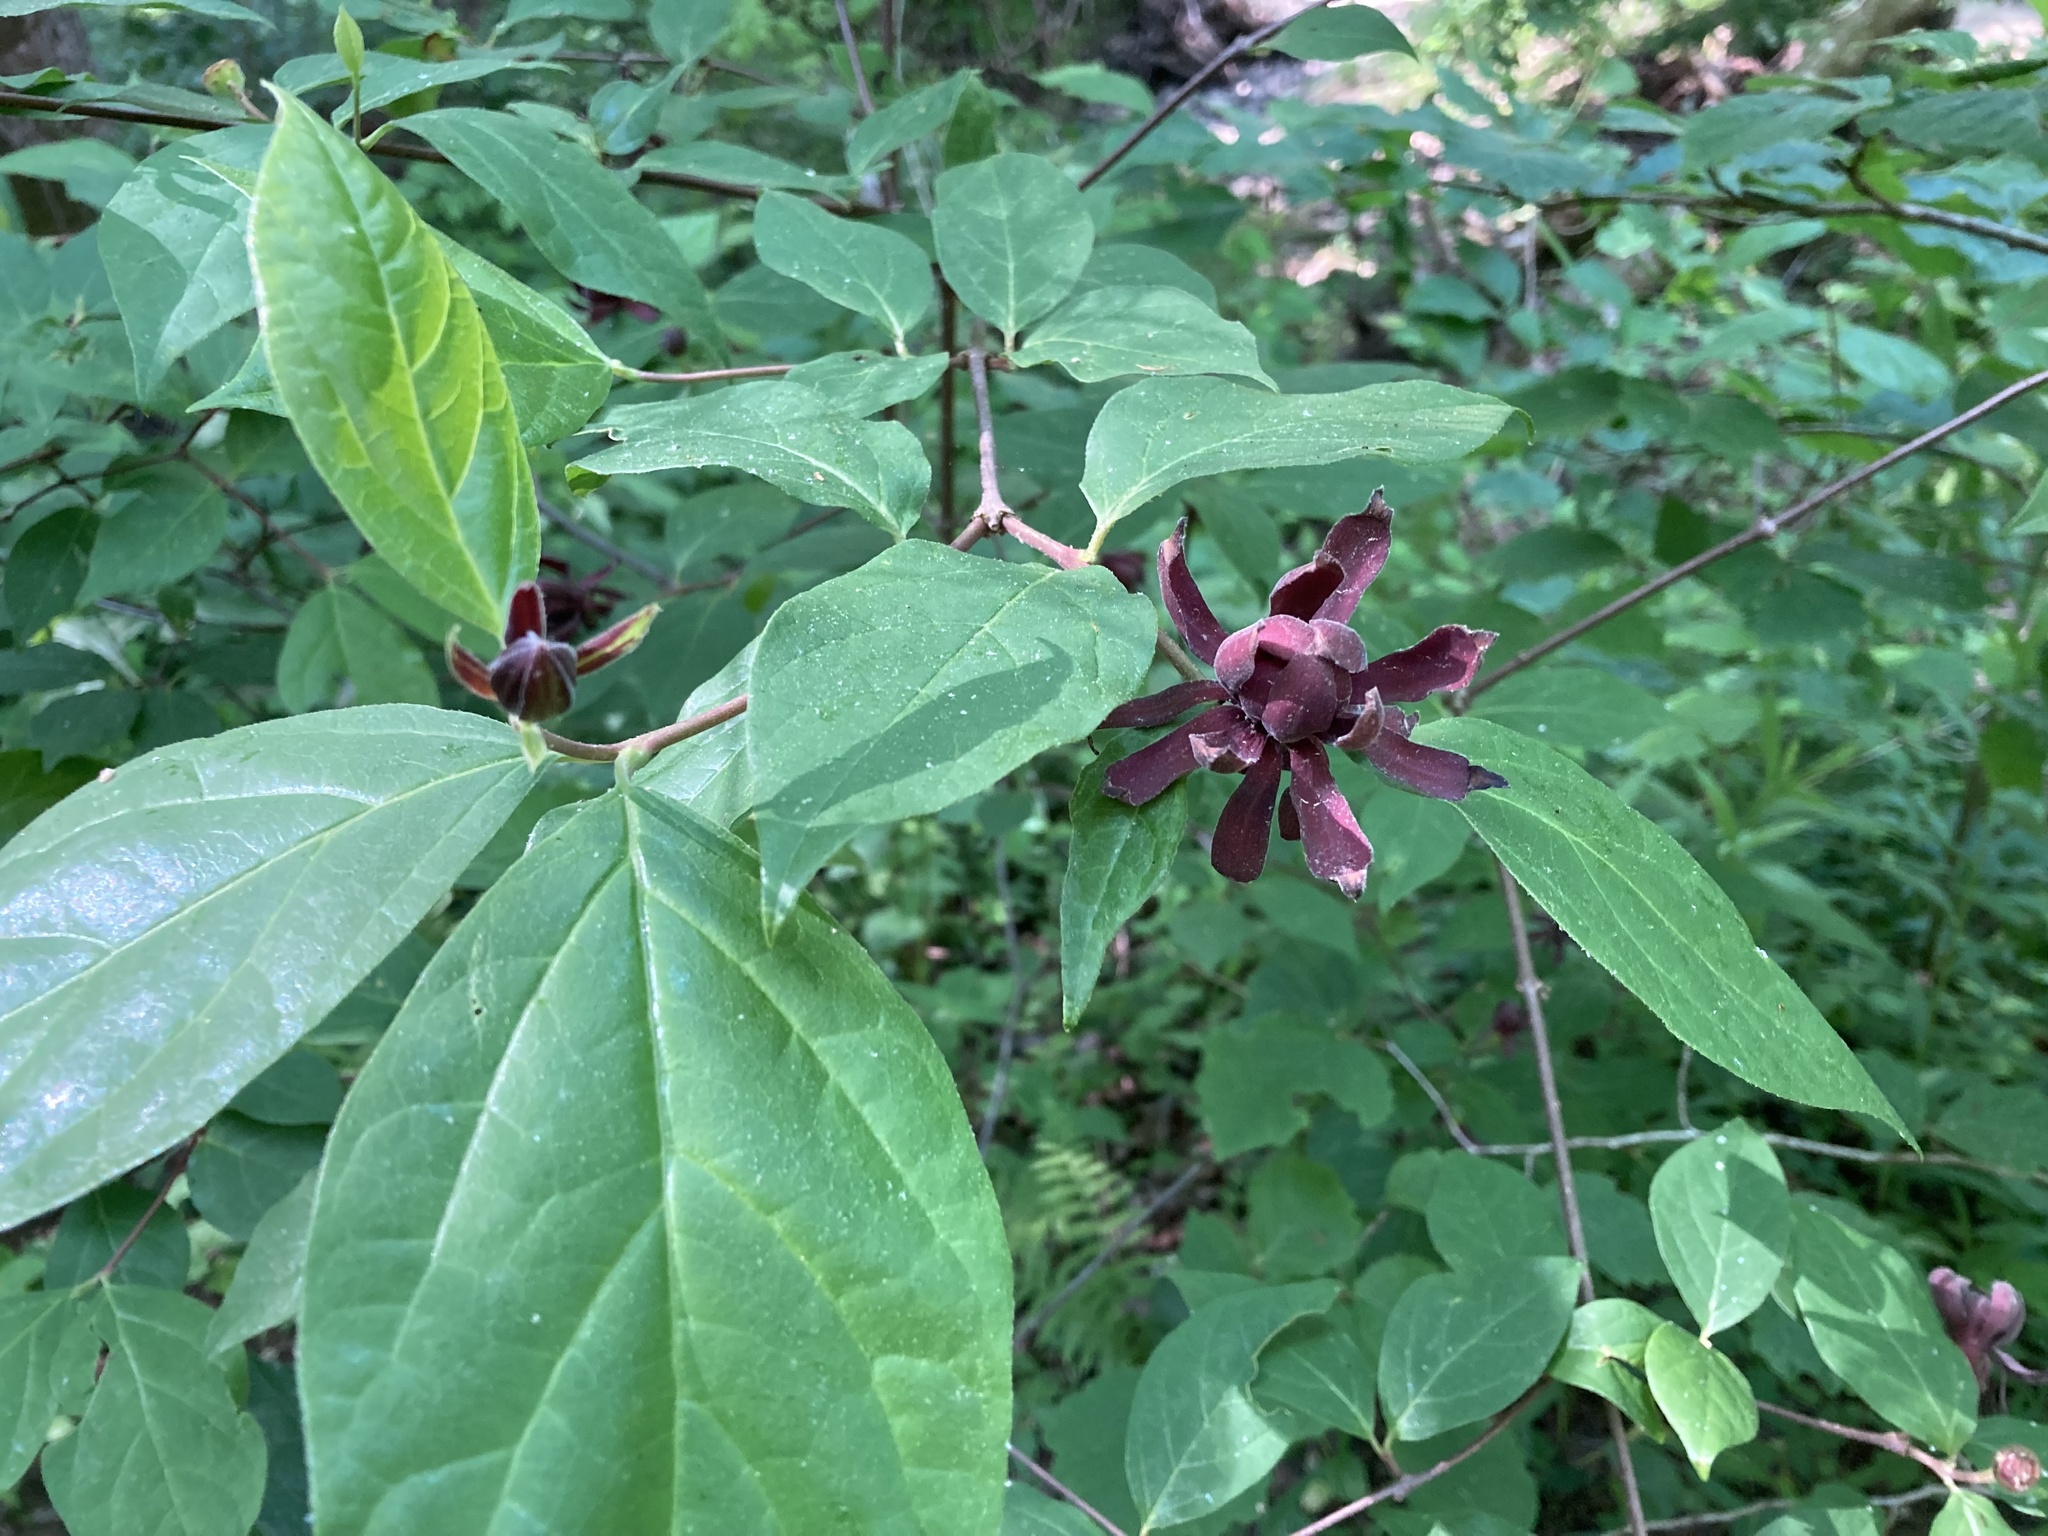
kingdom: Plantae
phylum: Tracheophyta
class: Magnoliopsida
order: Laurales
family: Calycanthaceae
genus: Calycanthus
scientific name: Calycanthus floridus
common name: Carolina-allspice
